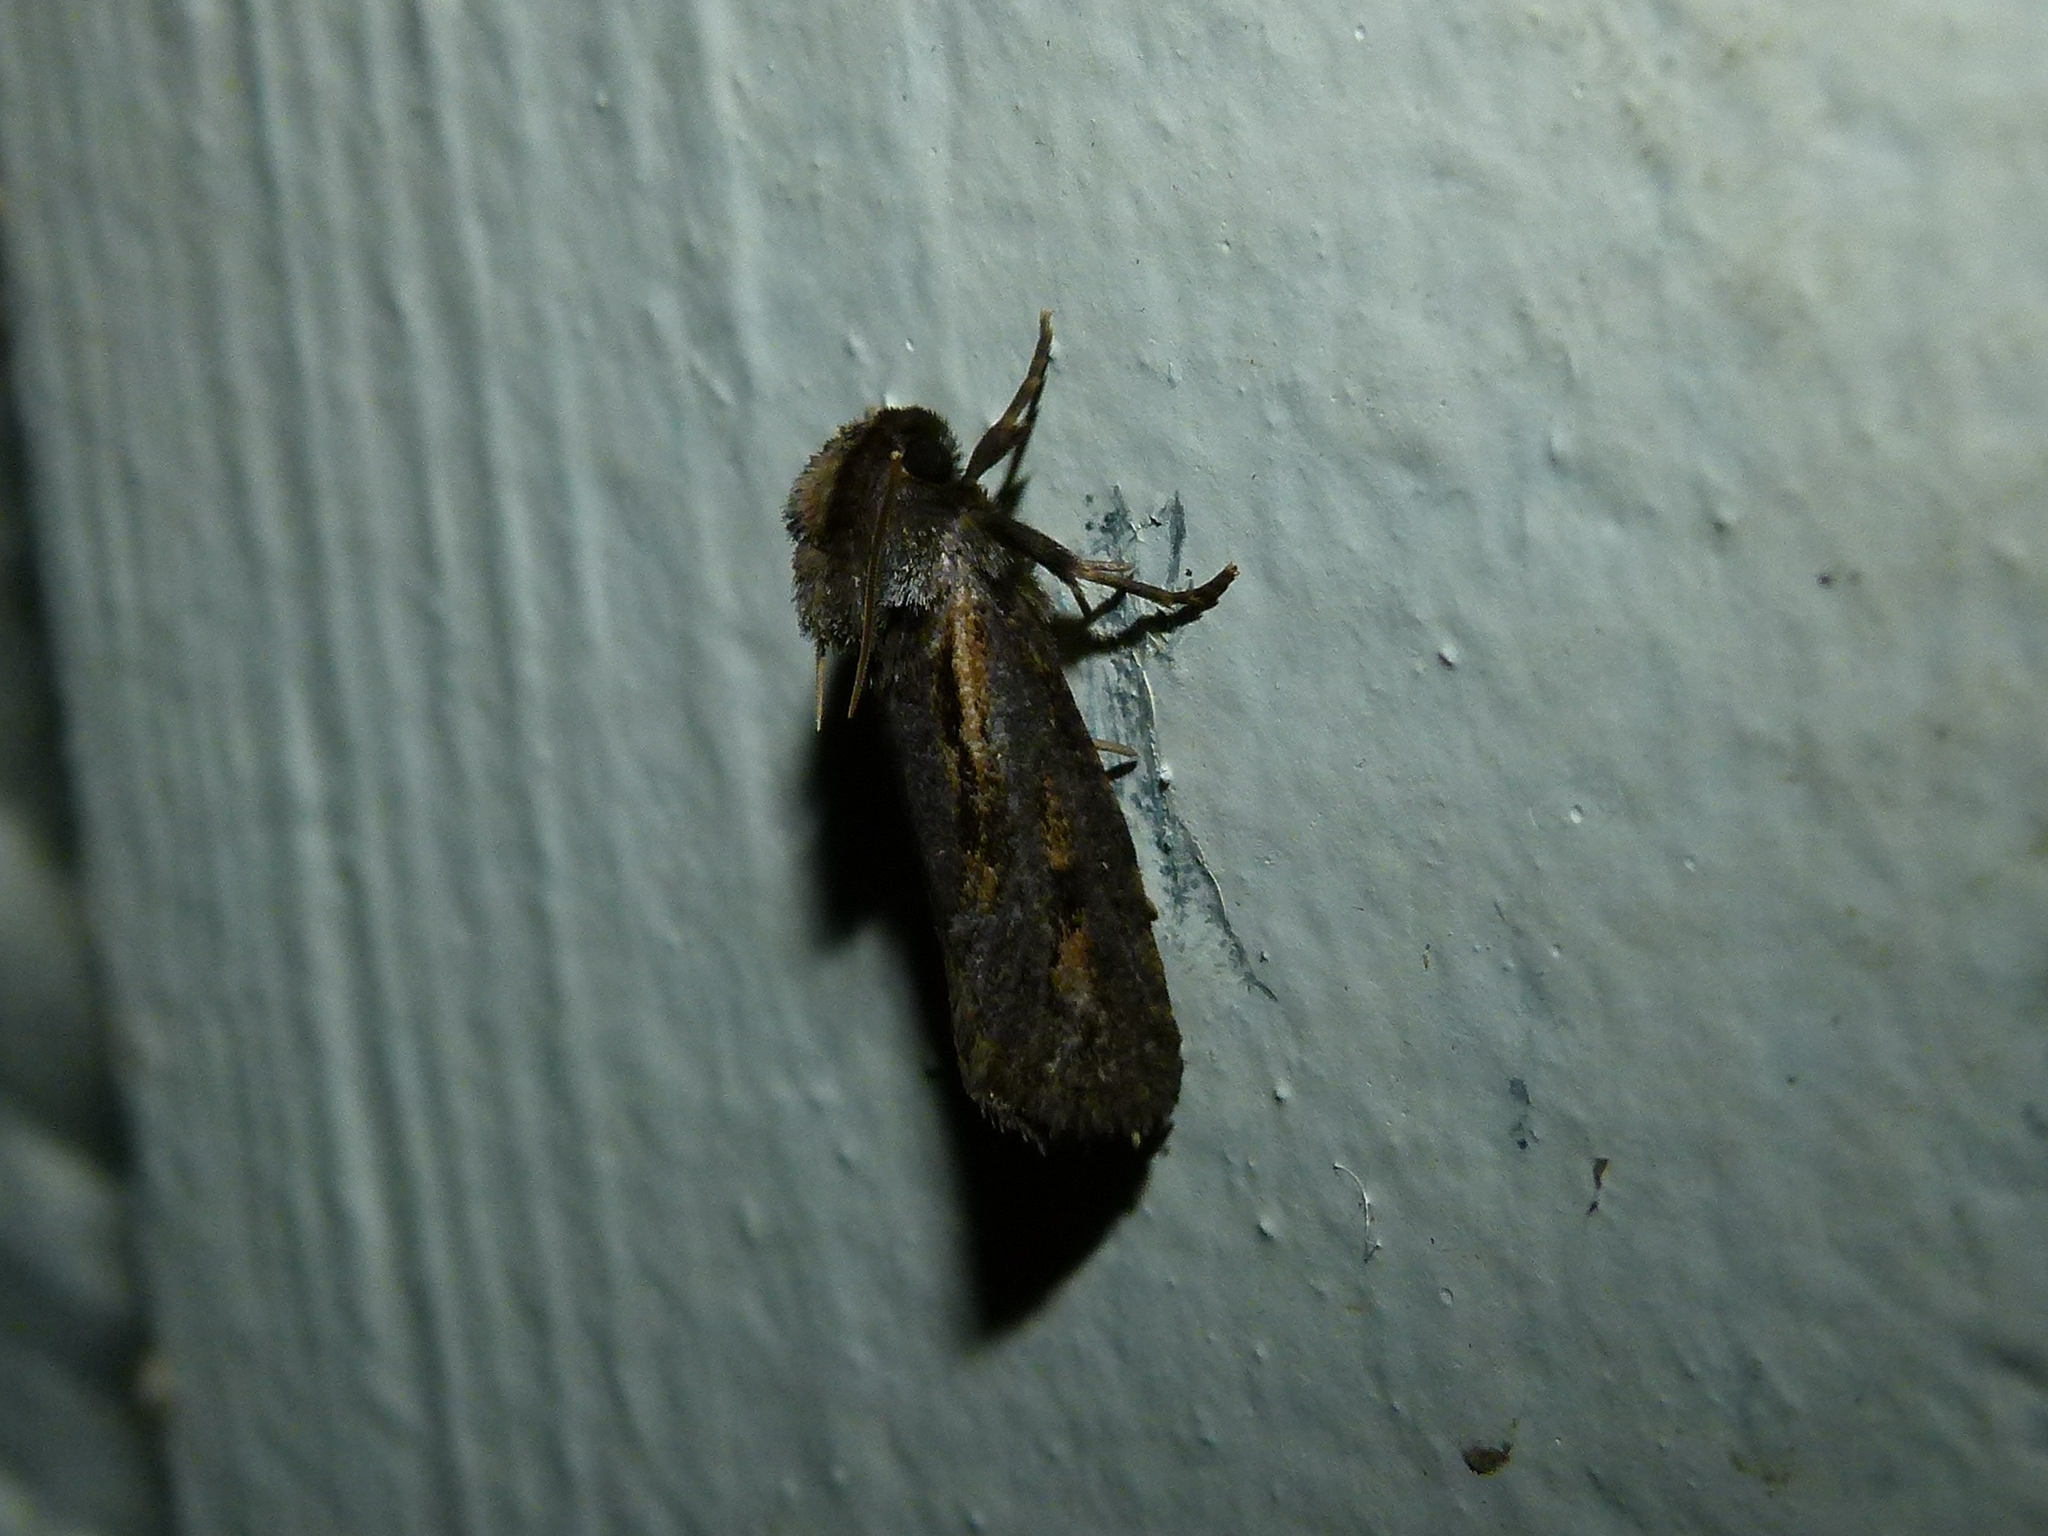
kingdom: Animalia
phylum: Arthropoda
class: Insecta
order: Lepidoptera
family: Tineidae
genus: Acrolophus
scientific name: Acrolophus popeanella
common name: Clemens' grass tubeworm moth
